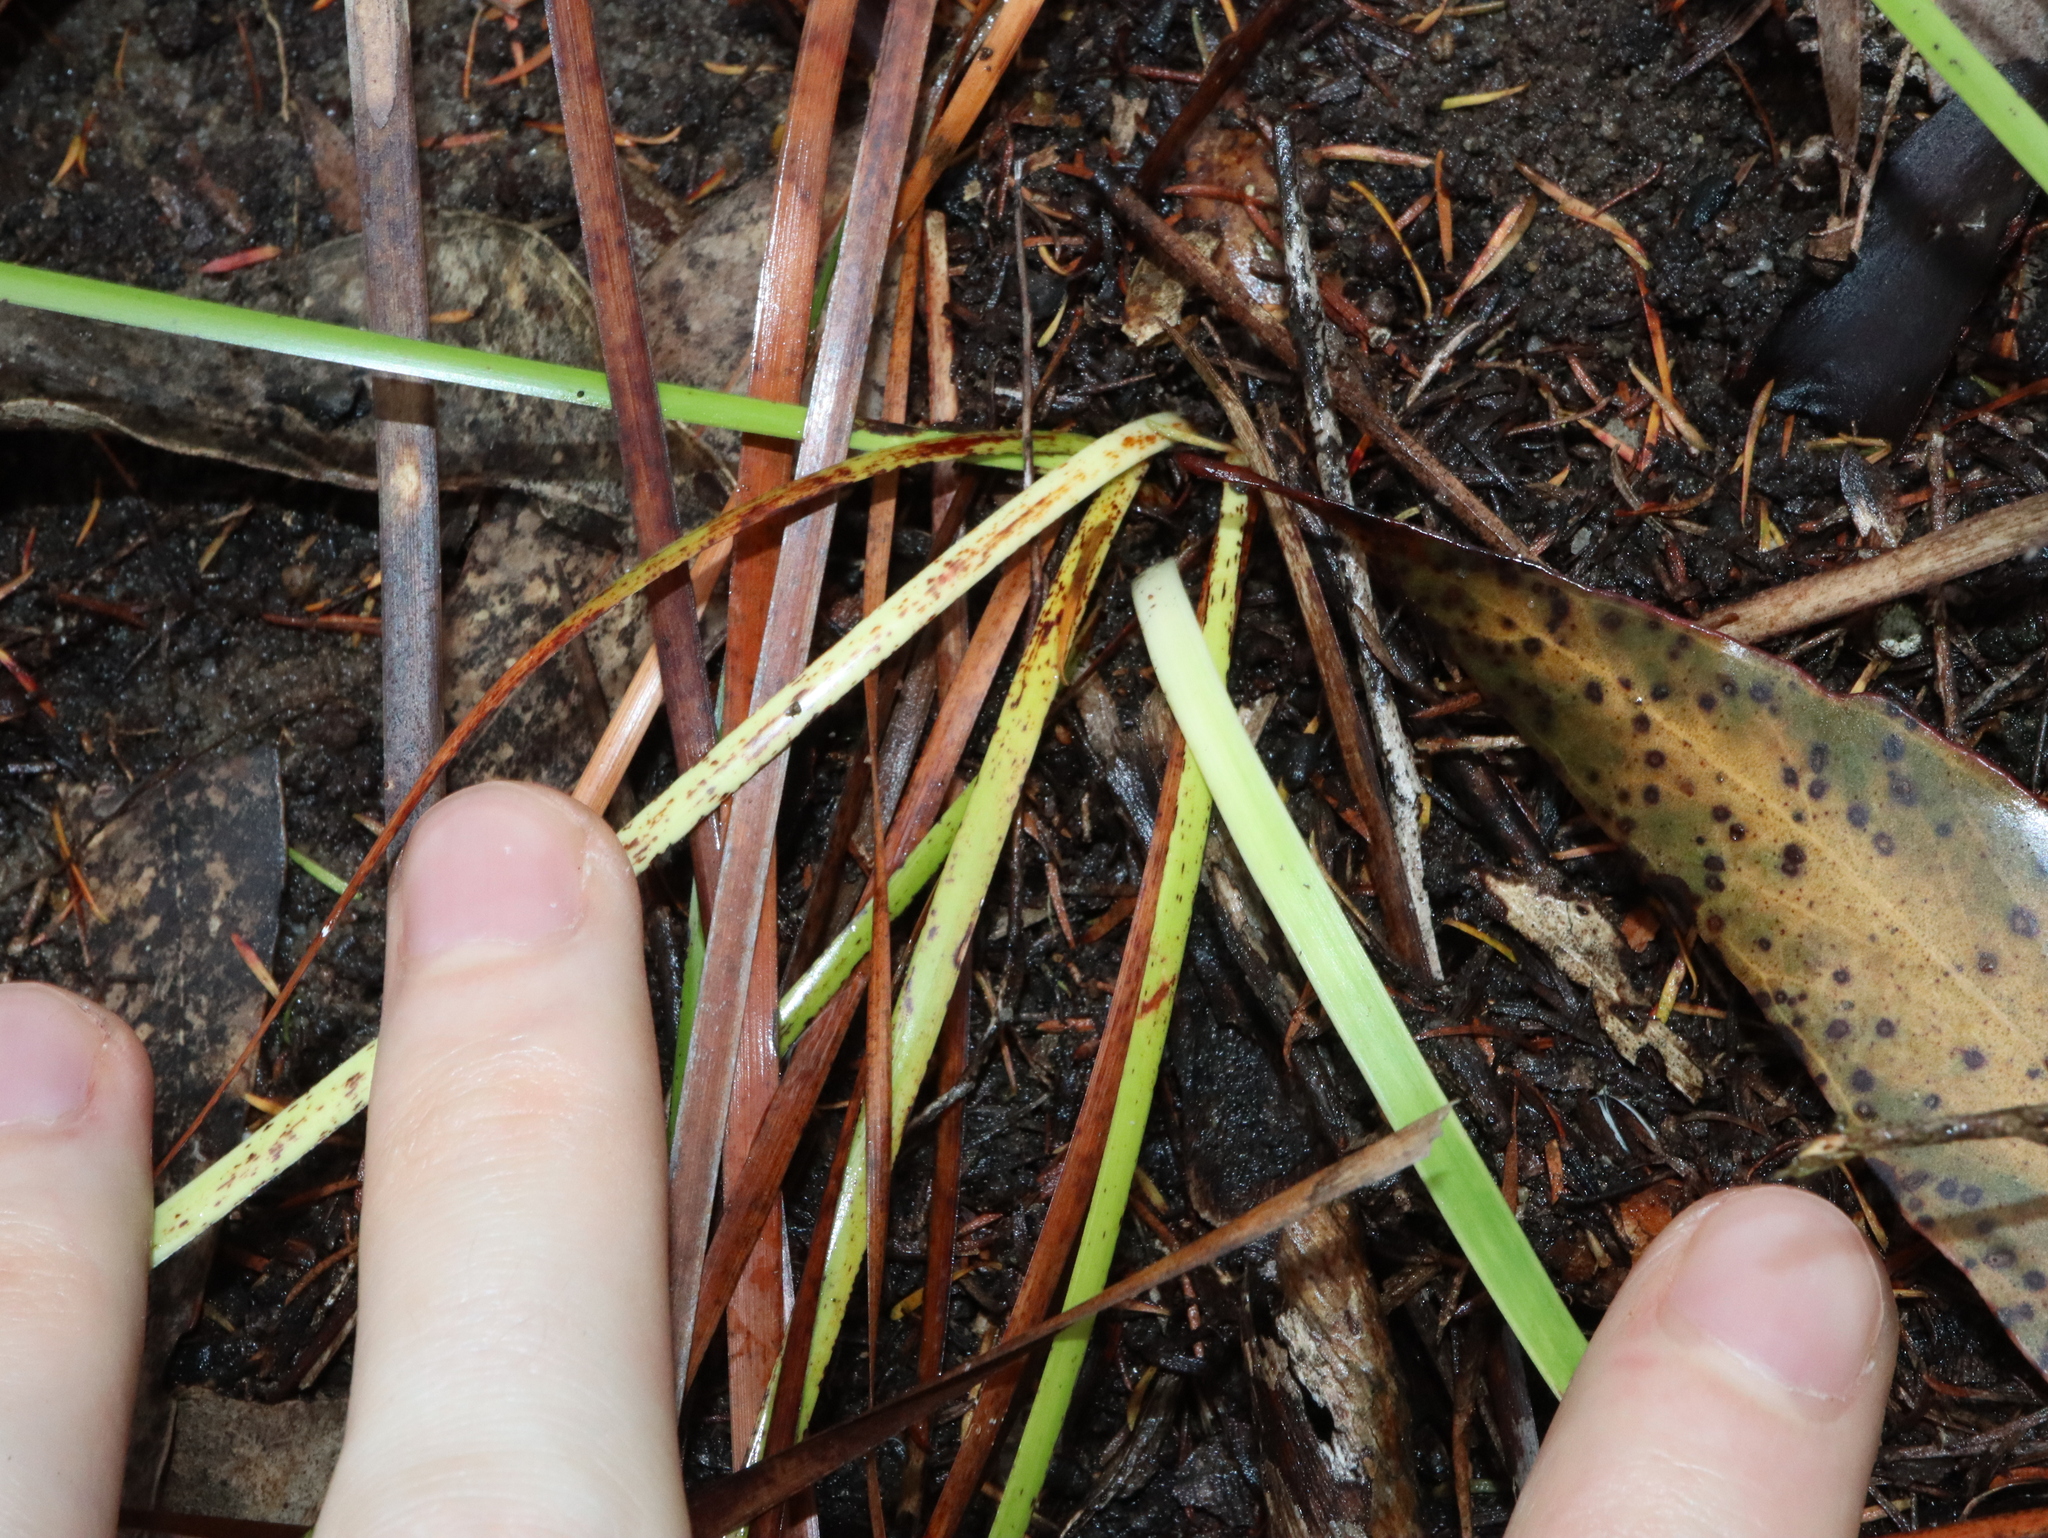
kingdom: Plantae
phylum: Tracheophyta
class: Liliopsida
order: Poales
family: Cyperaceae
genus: Lepidosperma
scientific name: Lepidosperma laterale
